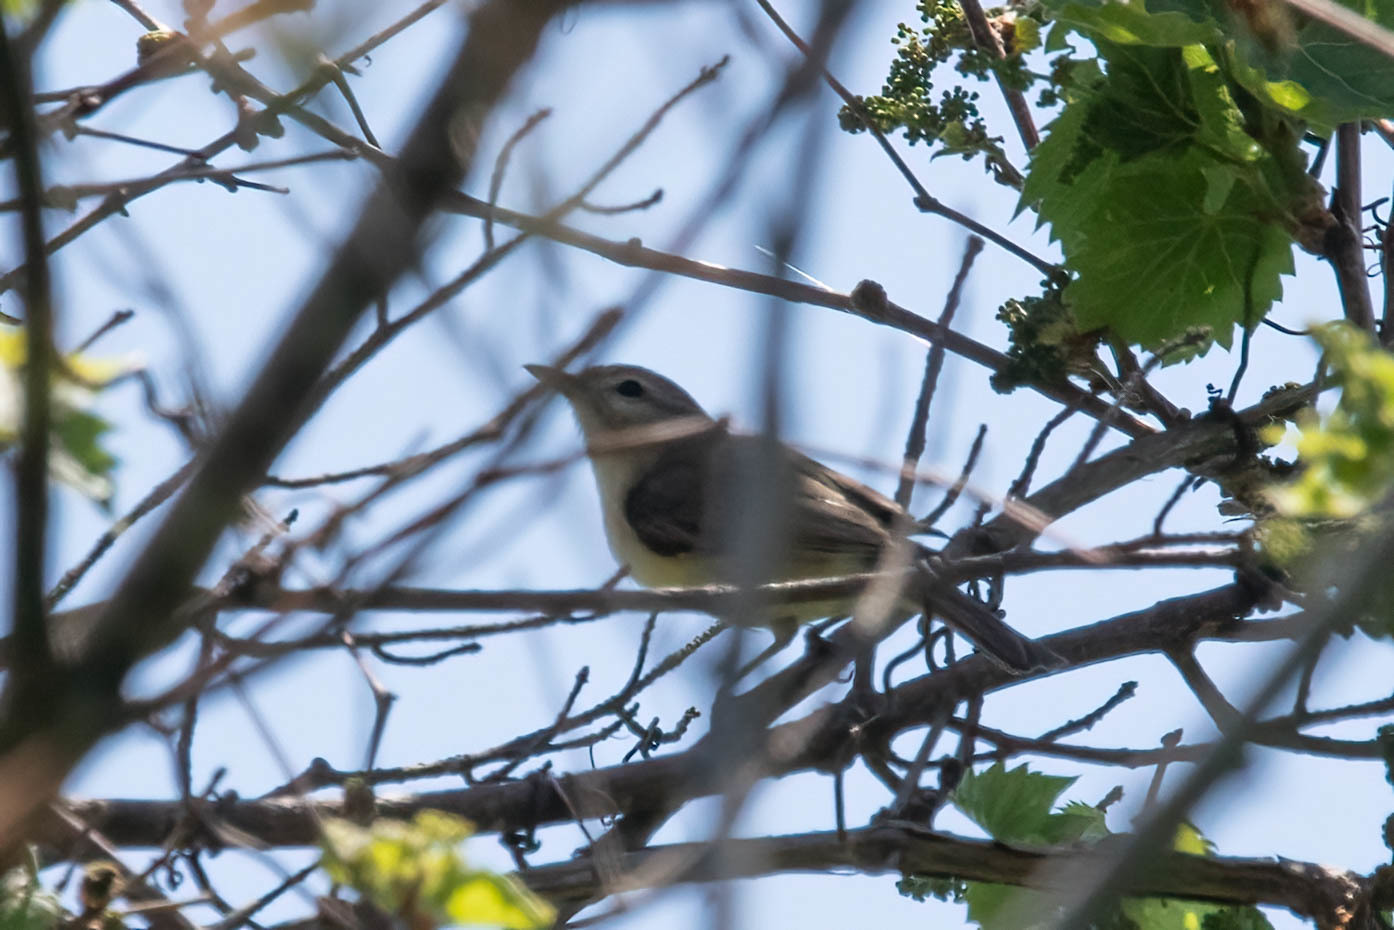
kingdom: Animalia
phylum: Chordata
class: Aves
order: Passeriformes
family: Vireonidae
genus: Vireo
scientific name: Vireo gilvus
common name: Warbling vireo
